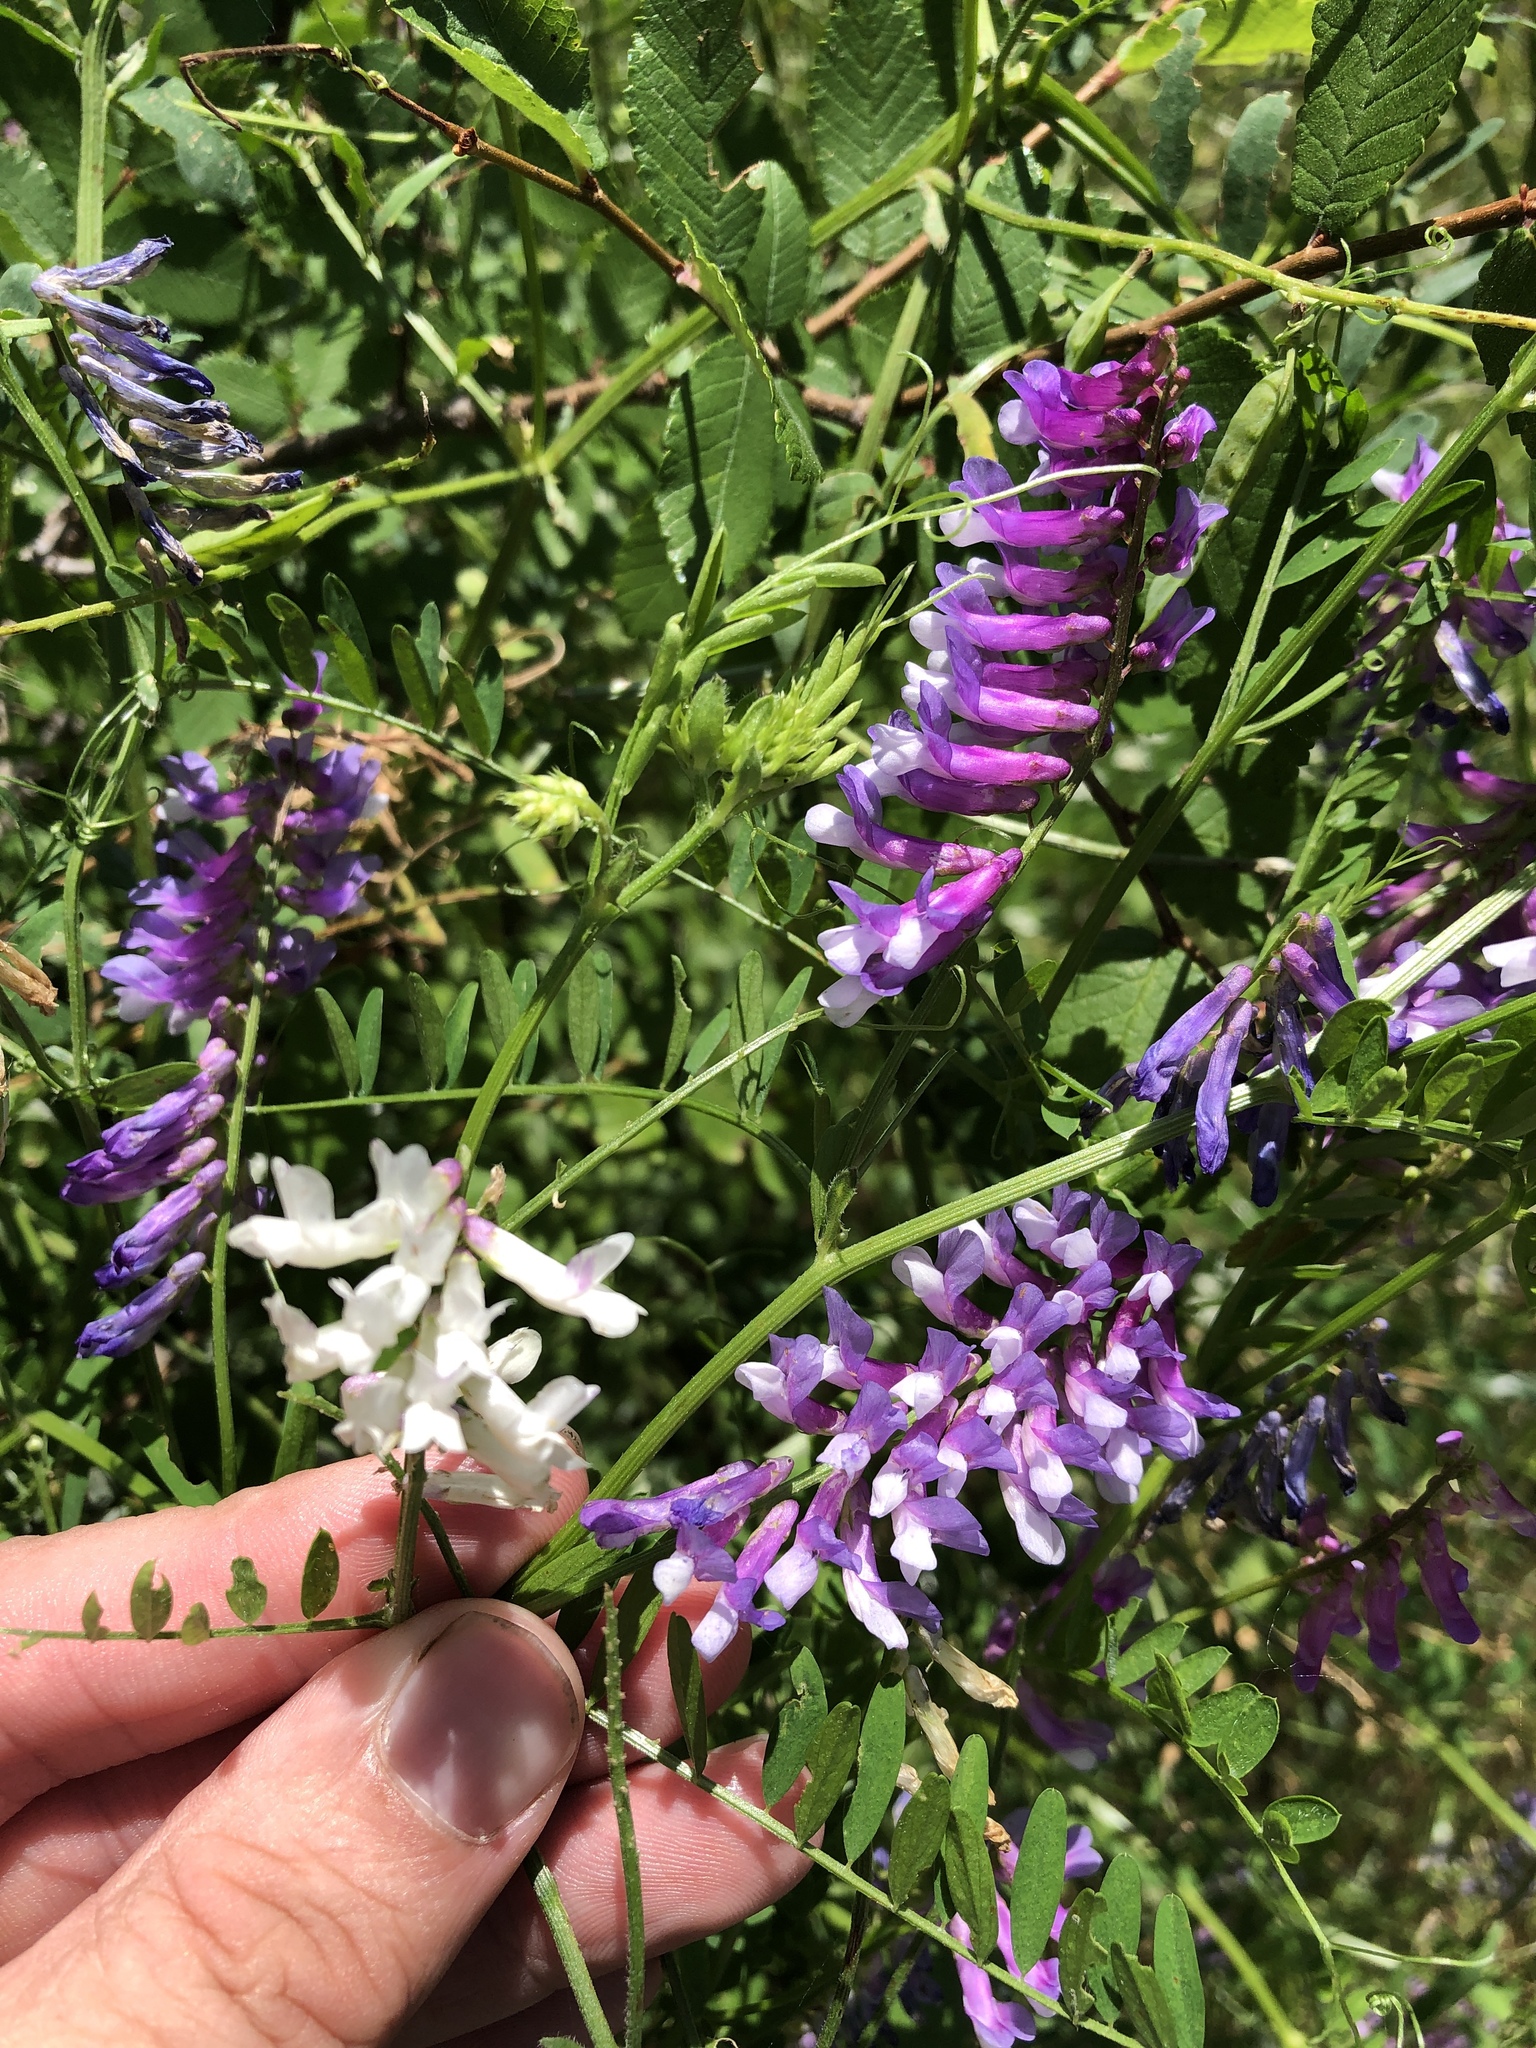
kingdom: Plantae
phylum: Tracheophyta
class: Magnoliopsida
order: Fabales
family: Fabaceae
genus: Vicia
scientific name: Vicia villosa
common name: Fodder vetch
